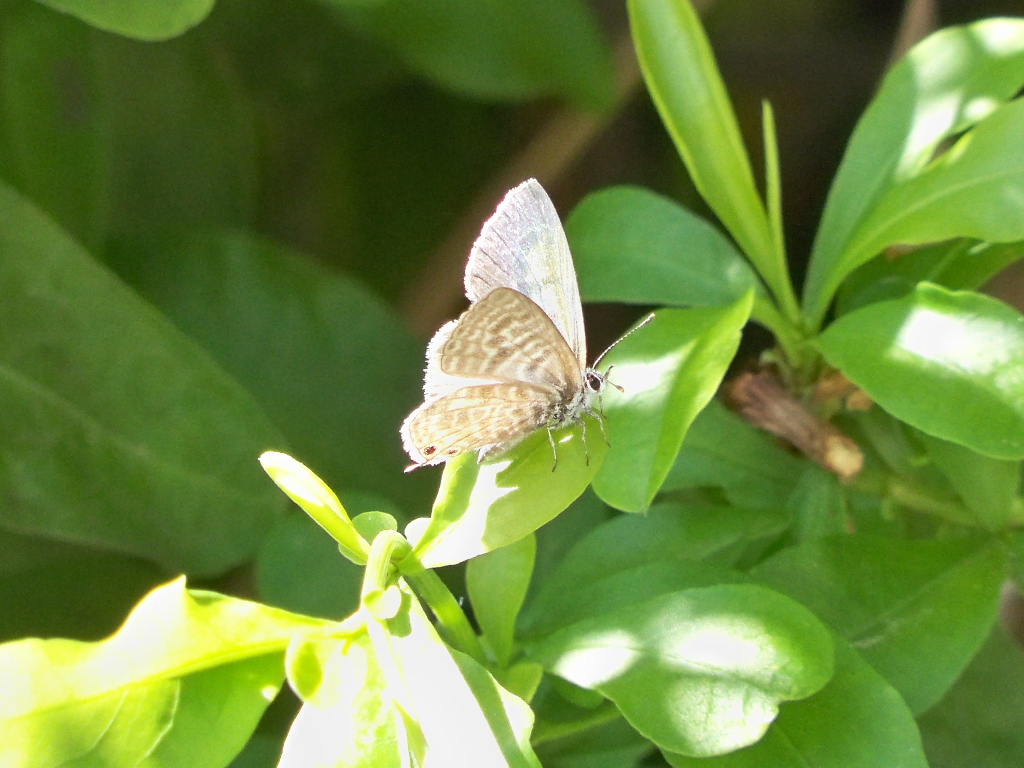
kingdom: Animalia
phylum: Arthropoda
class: Insecta
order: Lepidoptera
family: Lycaenidae
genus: Leptotes
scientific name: Leptotes pirithous
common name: Lang's short-tailed blue
